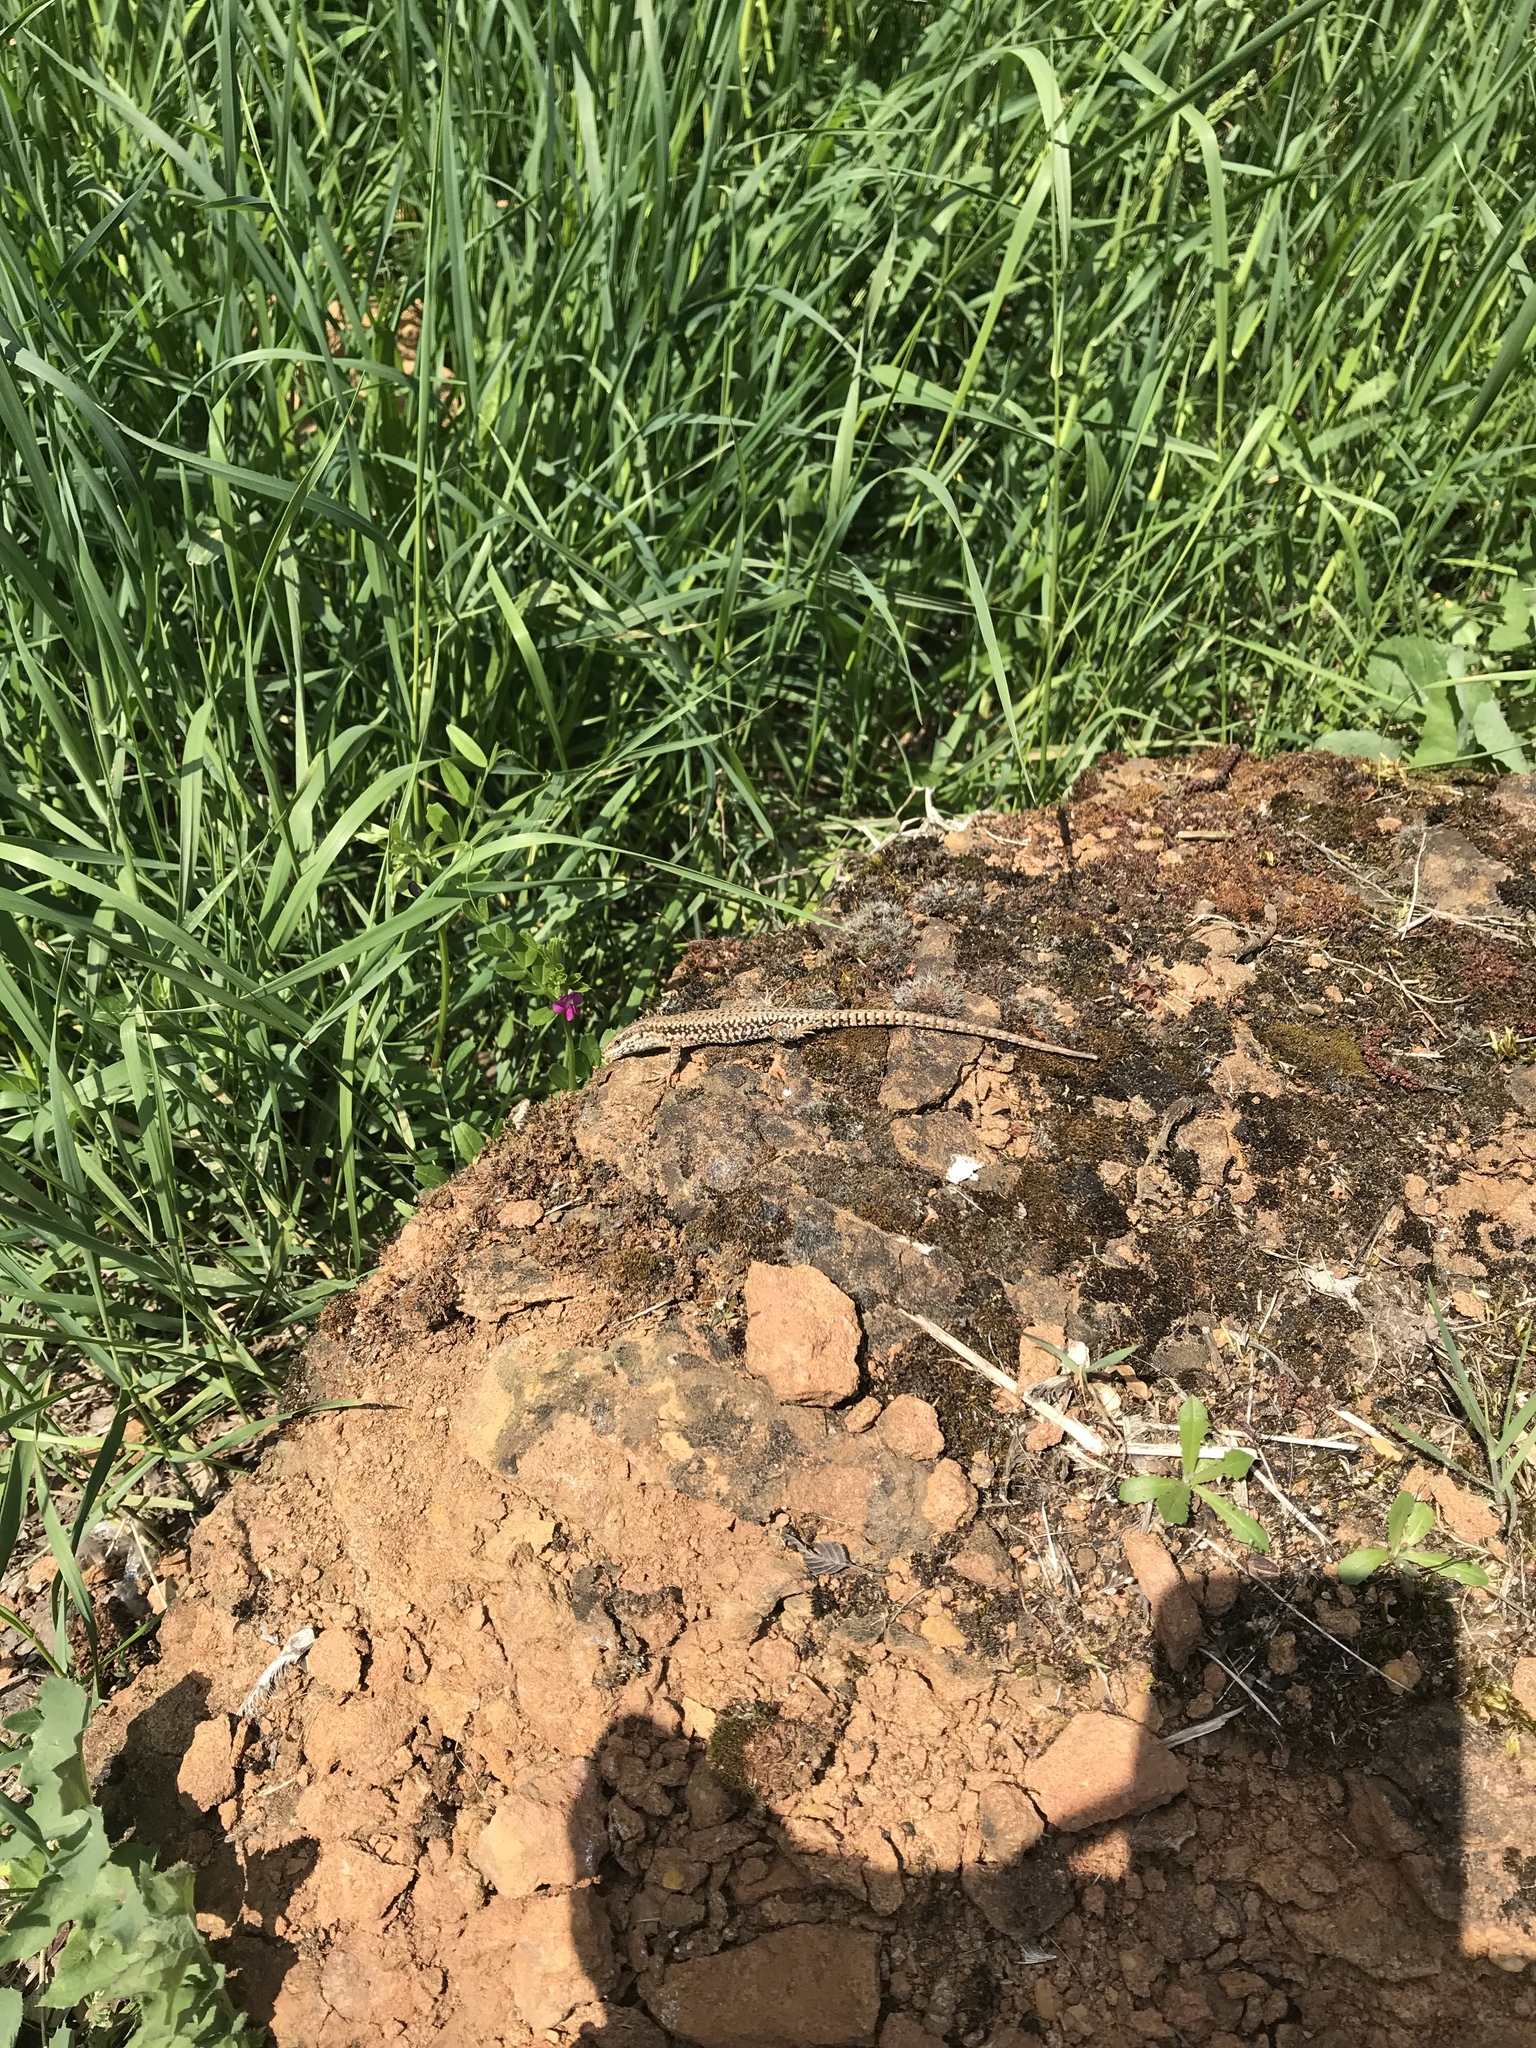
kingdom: Animalia
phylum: Chordata
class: Squamata
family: Lacertidae
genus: Podarcis
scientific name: Podarcis muralis
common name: Common wall lizard
